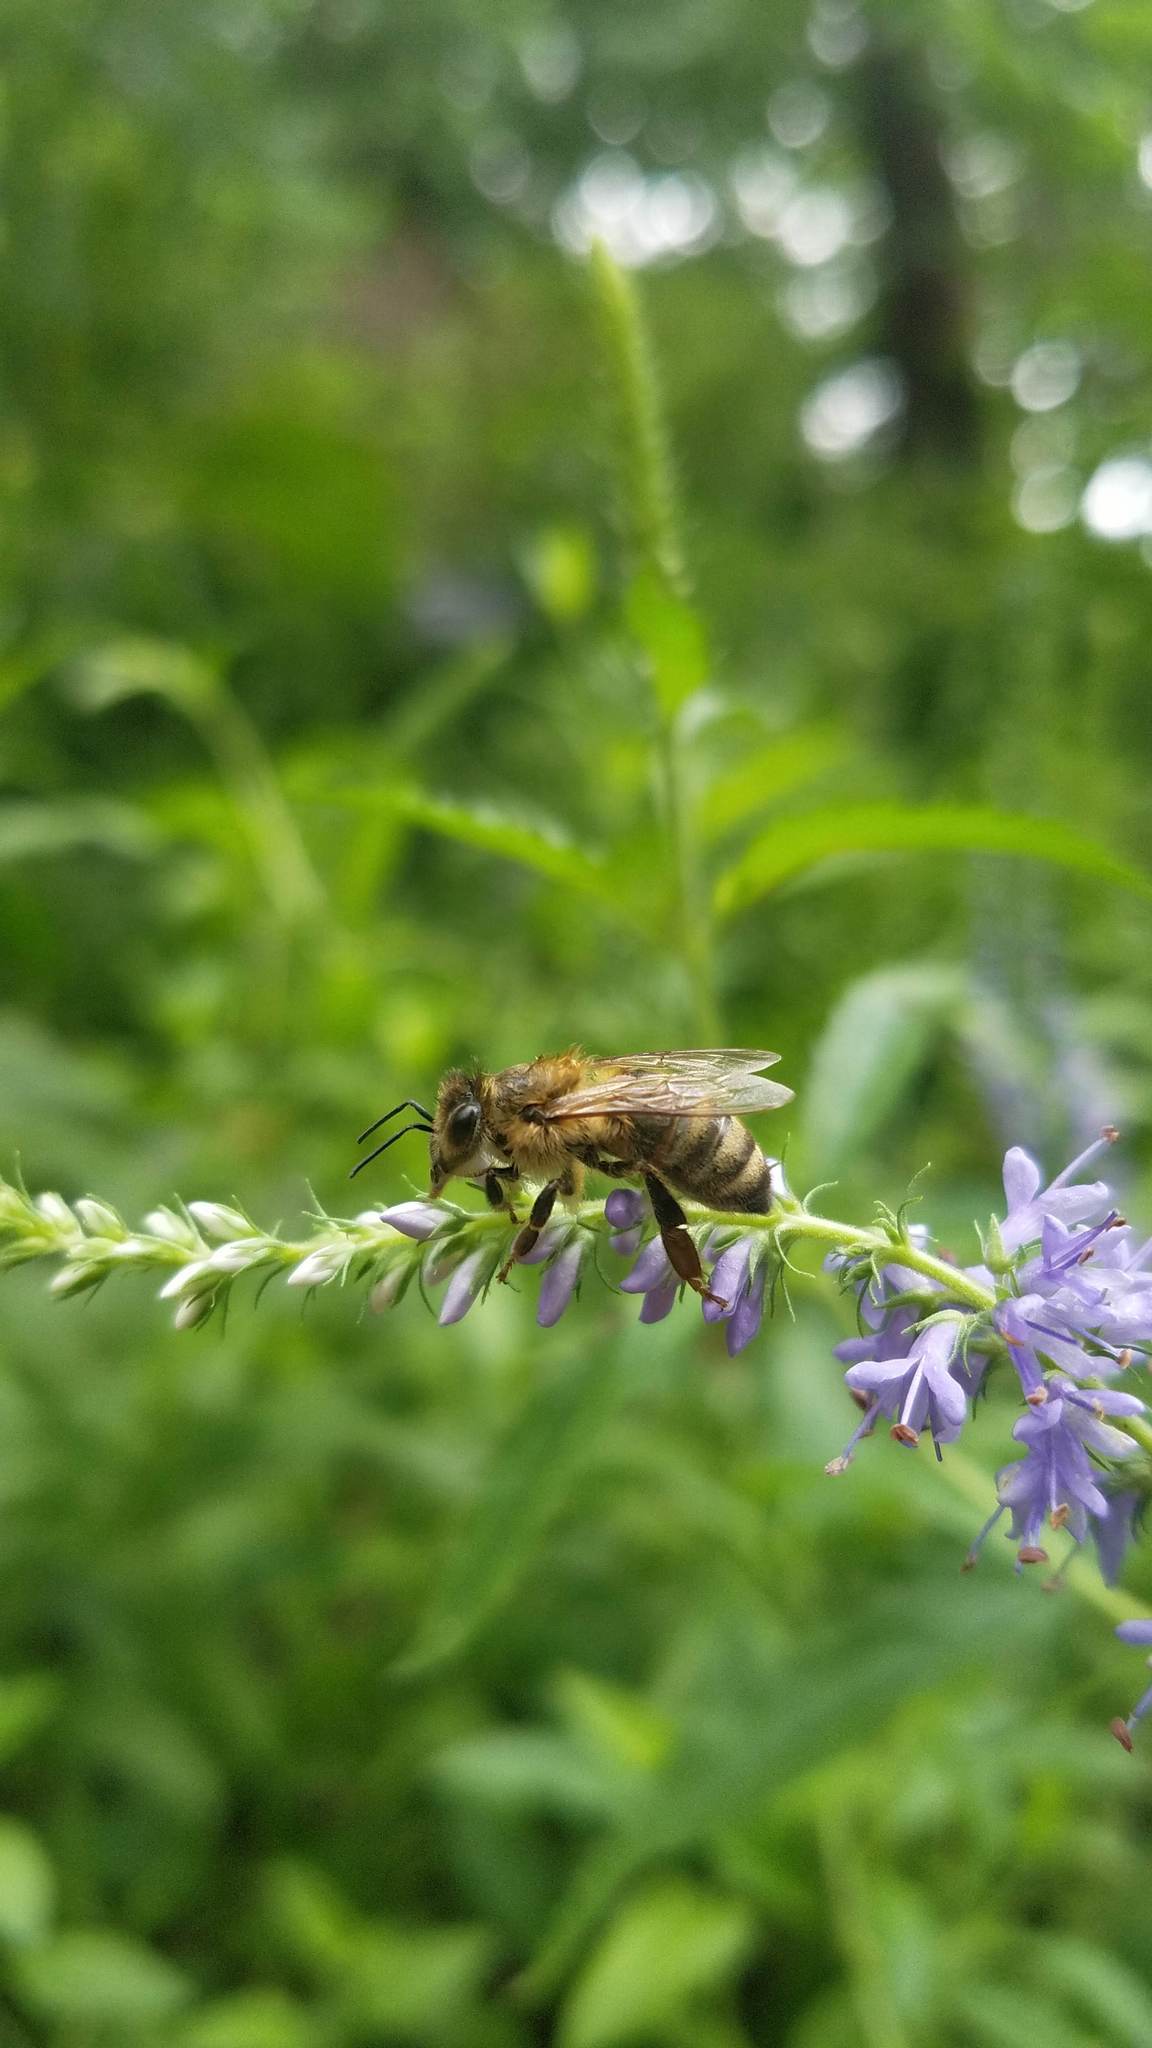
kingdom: Animalia
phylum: Arthropoda
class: Insecta
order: Hymenoptera
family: Apidae
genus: Apis
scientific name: Apis mellifera
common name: Honey bee
